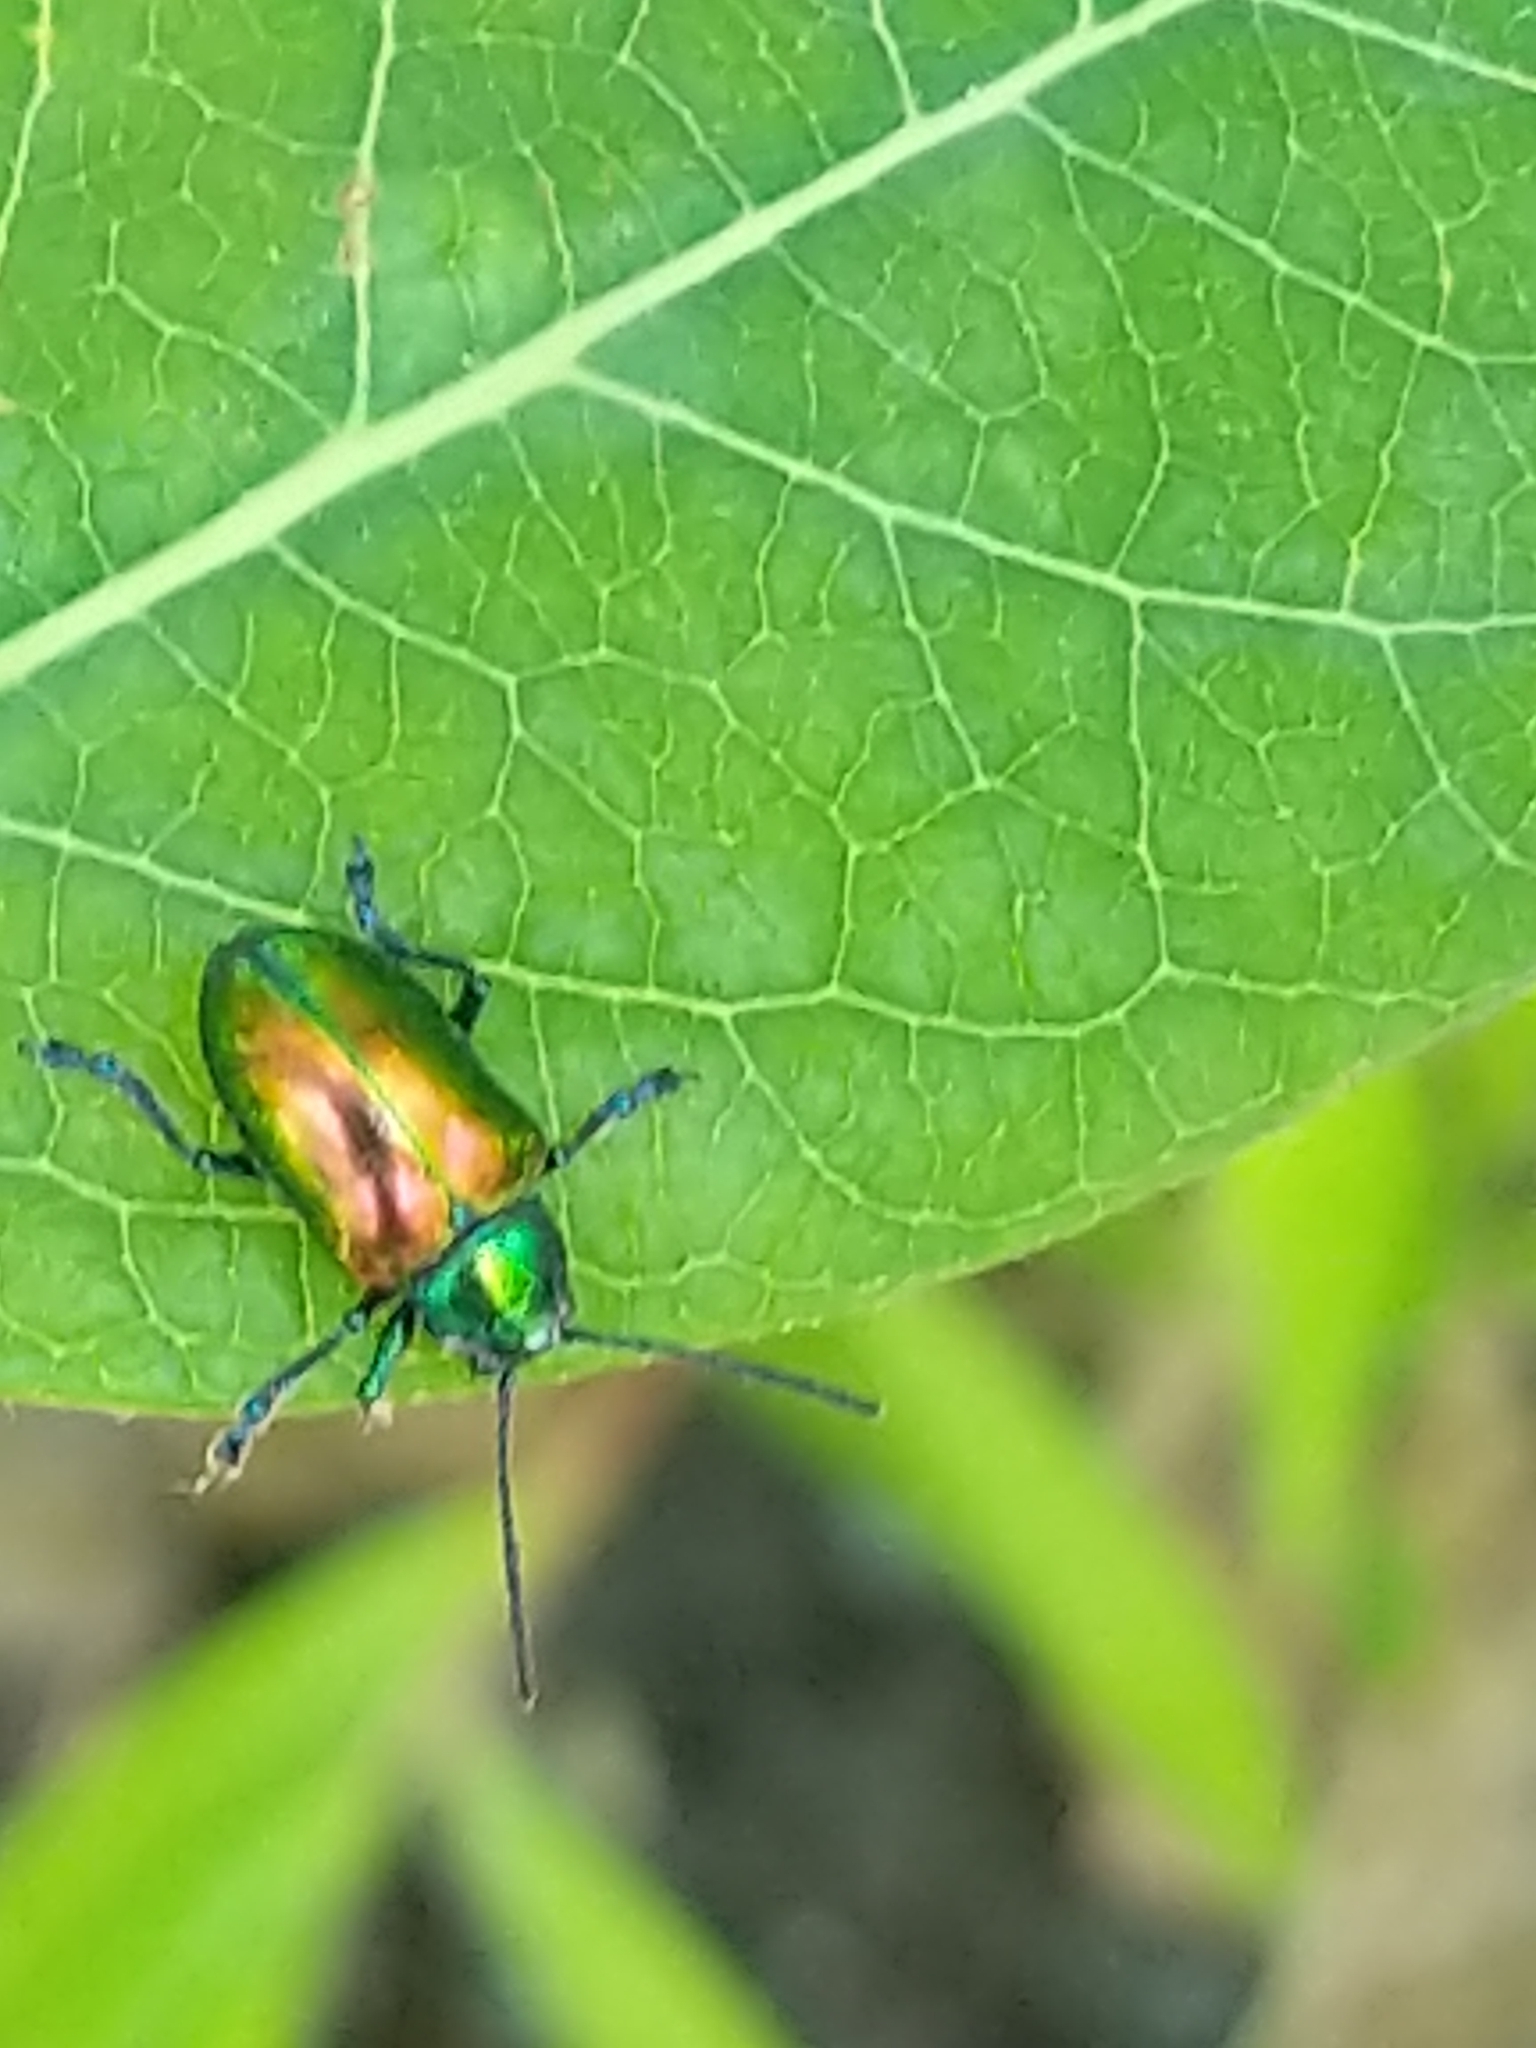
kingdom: Animalia
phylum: Arthropoda
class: Insecta
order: Coleoptera
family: Chrysomelidae
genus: Chrysochus
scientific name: Chrysochus auratus
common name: Dogbane leaf beetle
